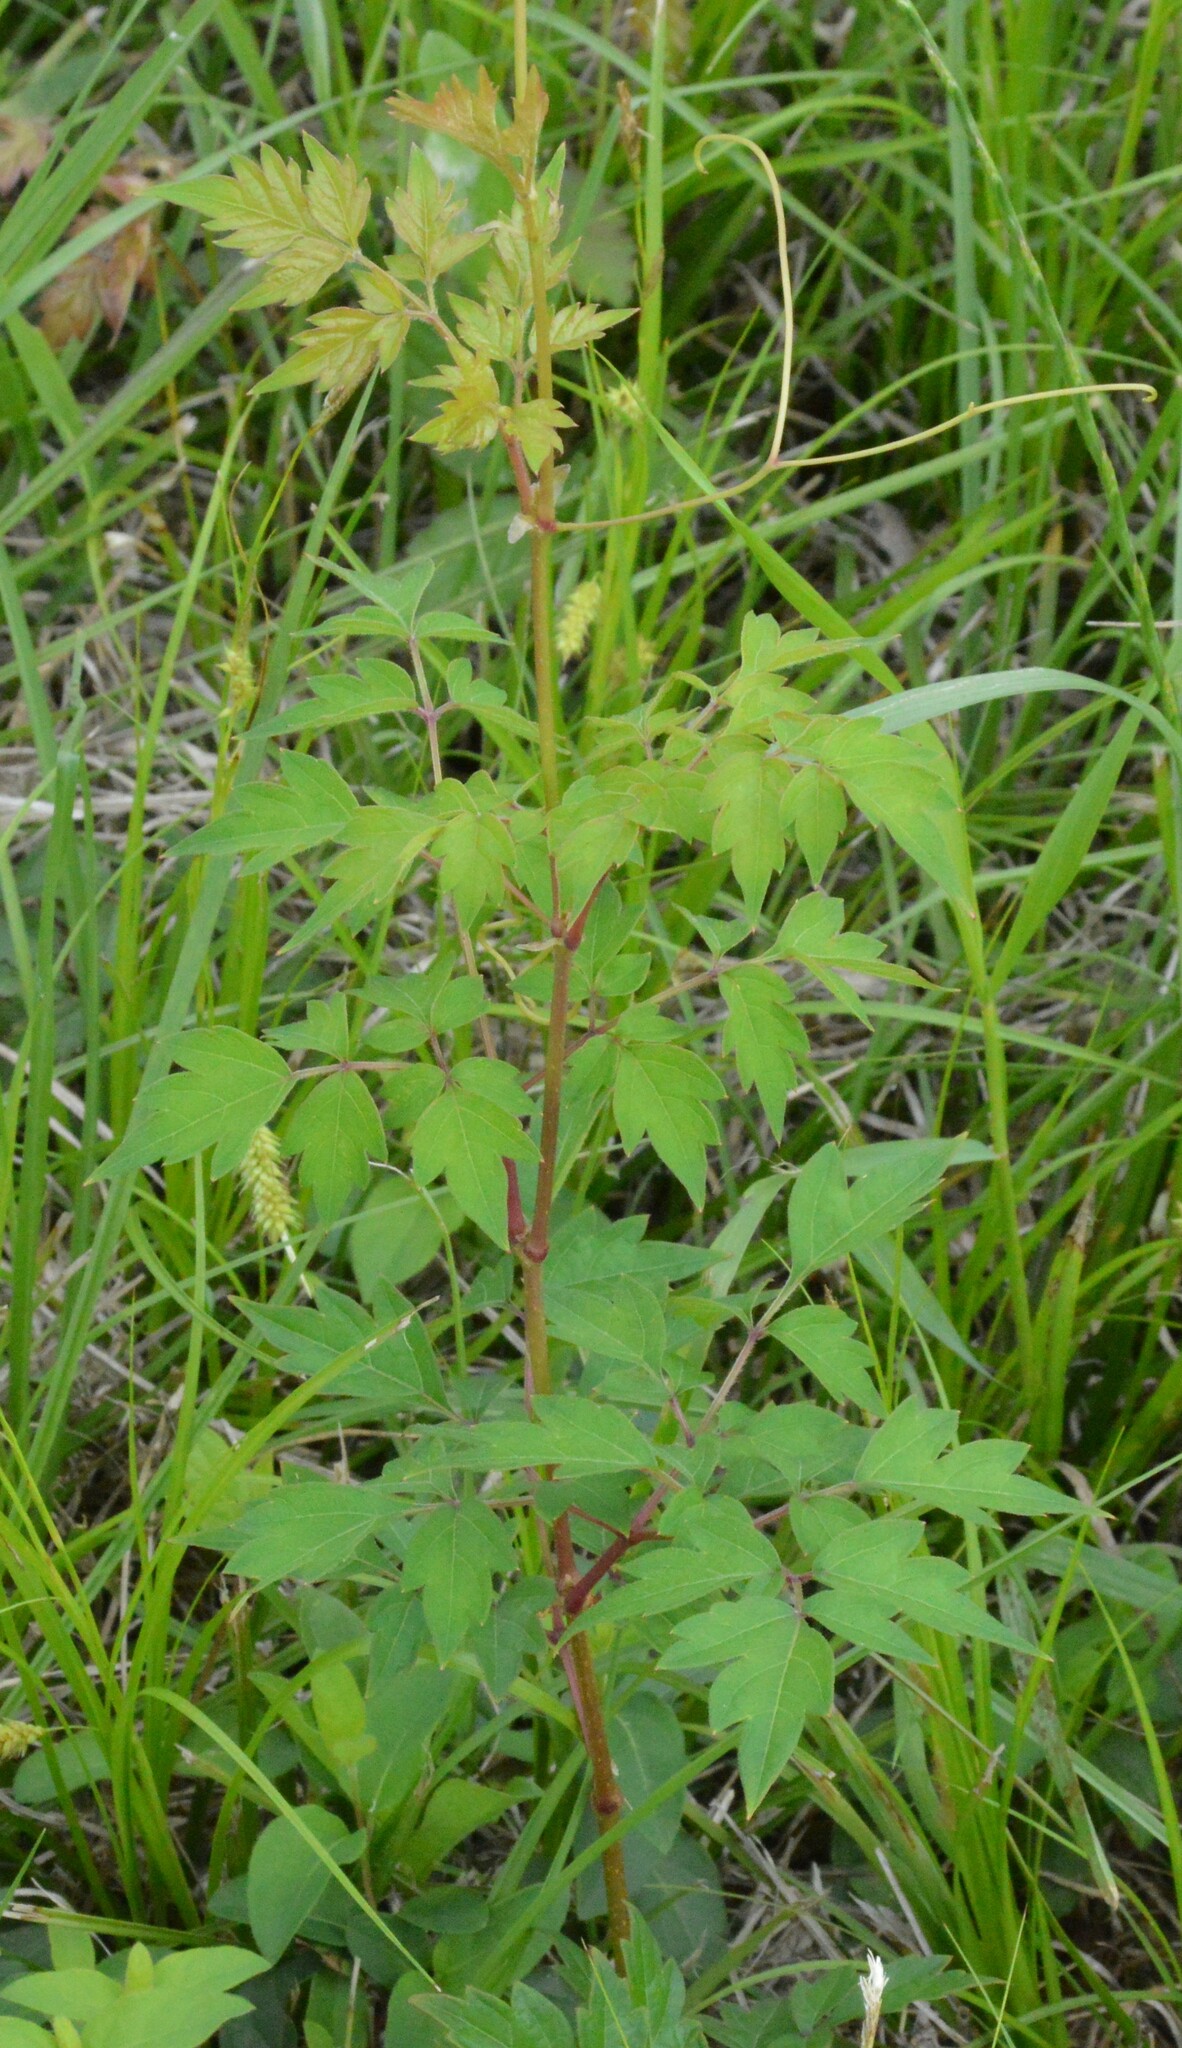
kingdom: Plantae
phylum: Tracheophyta
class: Magnoliopsida
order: Vitales
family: Vitaceae
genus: Nekemias
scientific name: Nekemias arborea
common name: Peppervine
